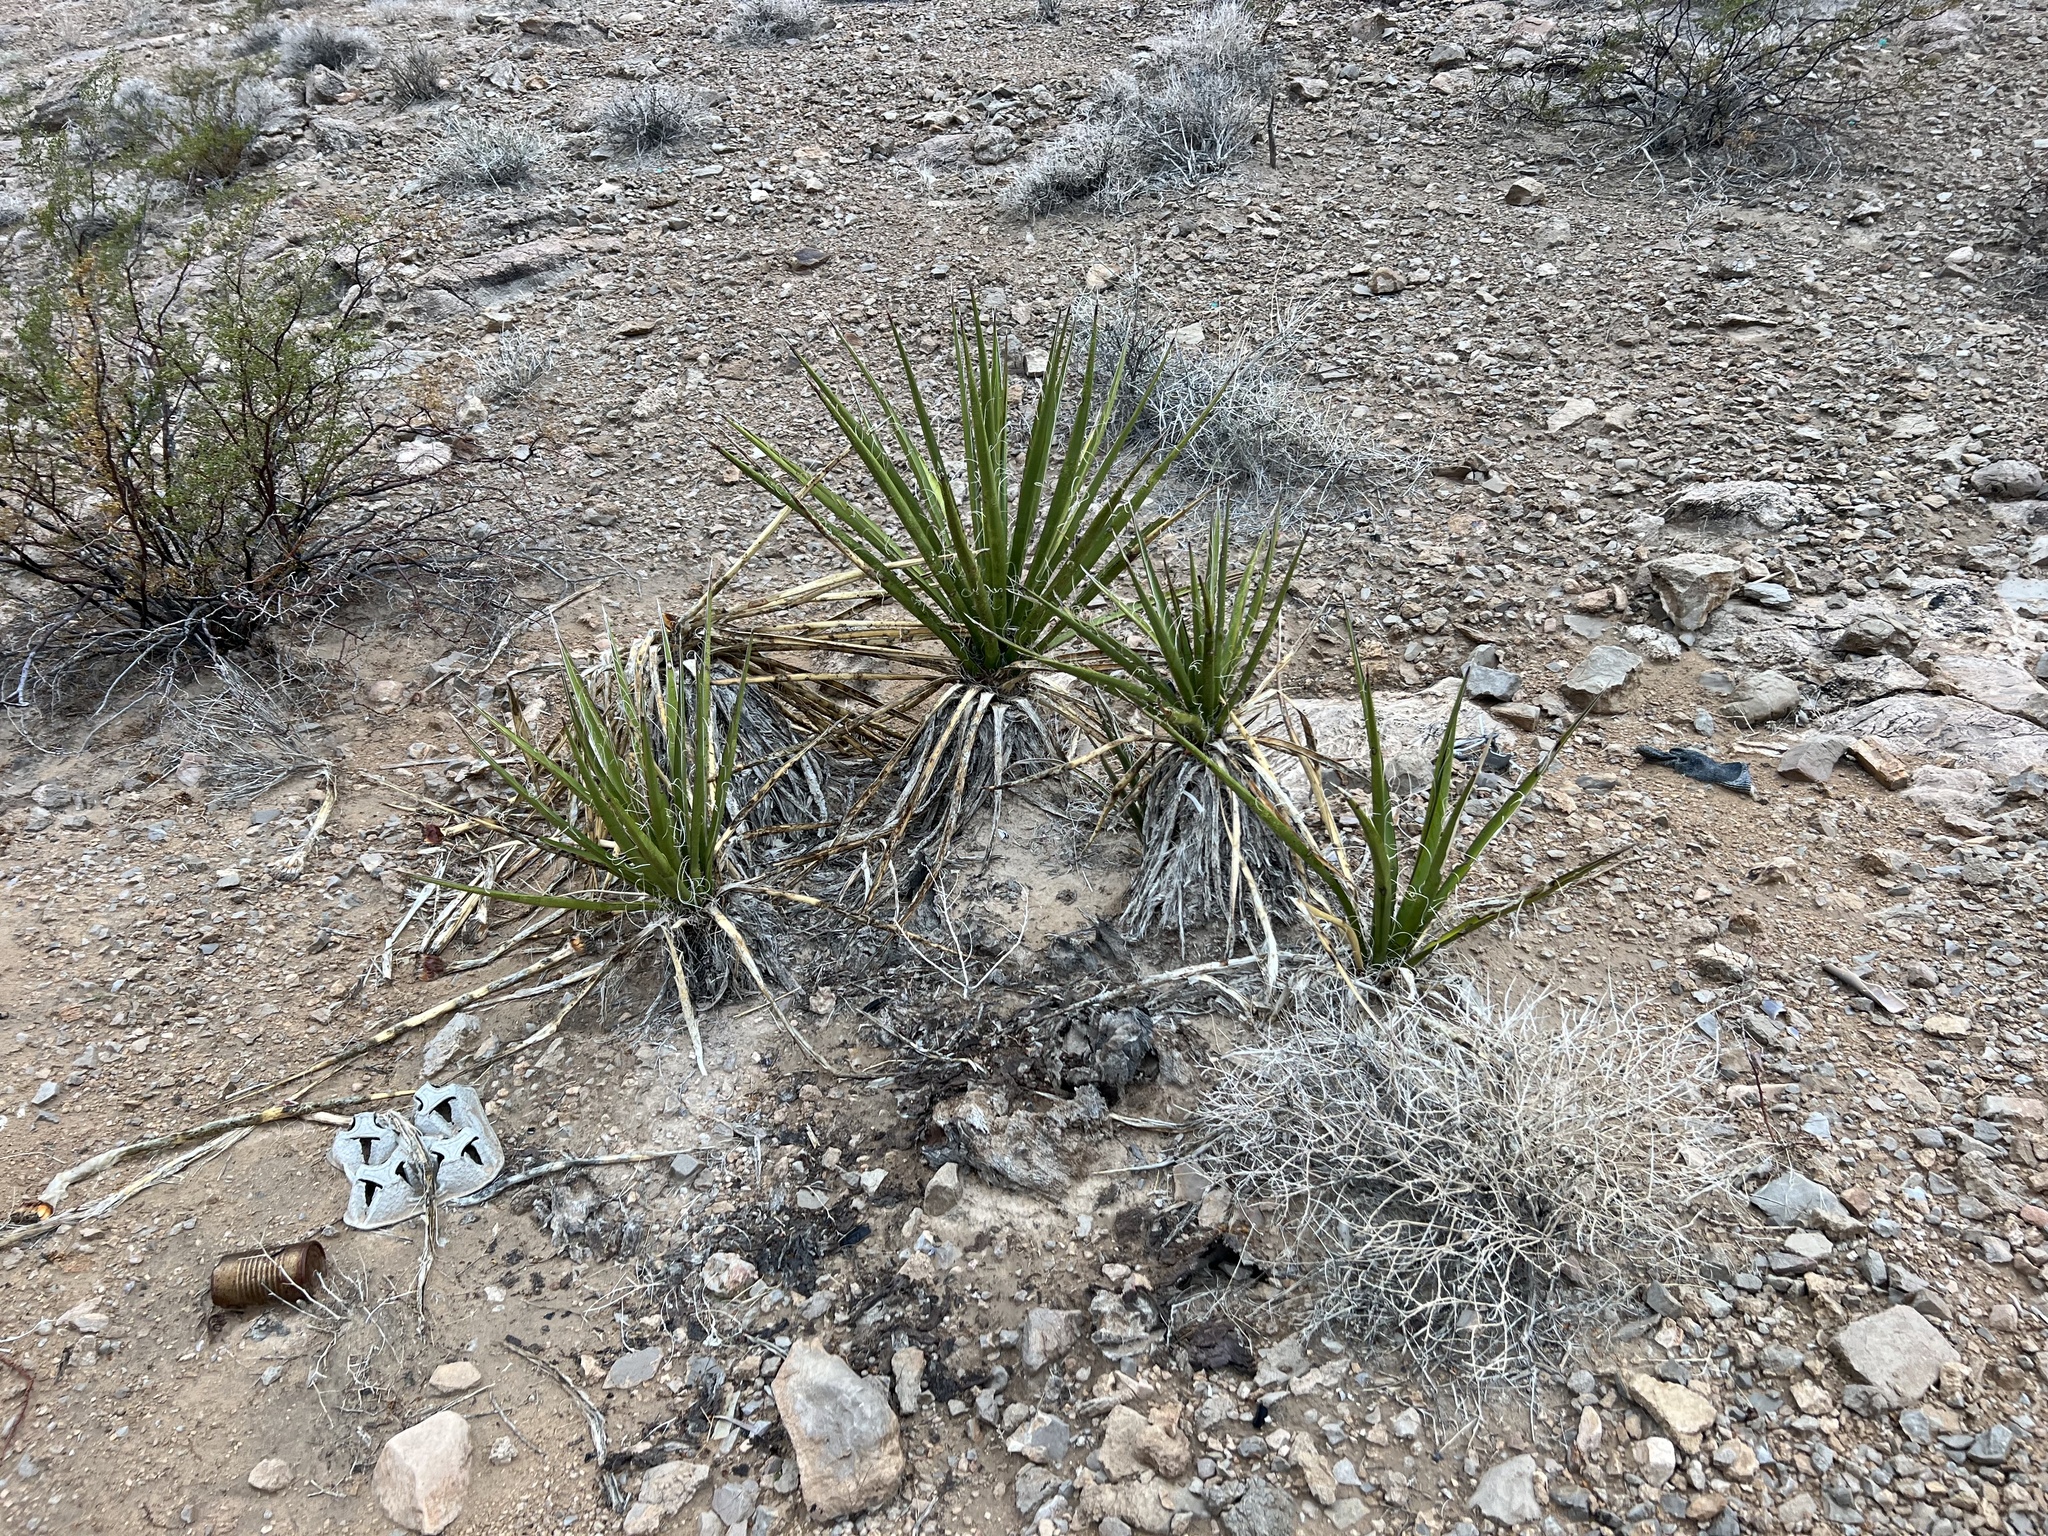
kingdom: Plantae
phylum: Tracheophyta
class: Magnoliopsida
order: Zygophyllales
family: Zygophyllaceae
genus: Larrea
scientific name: Larrea tridentata
